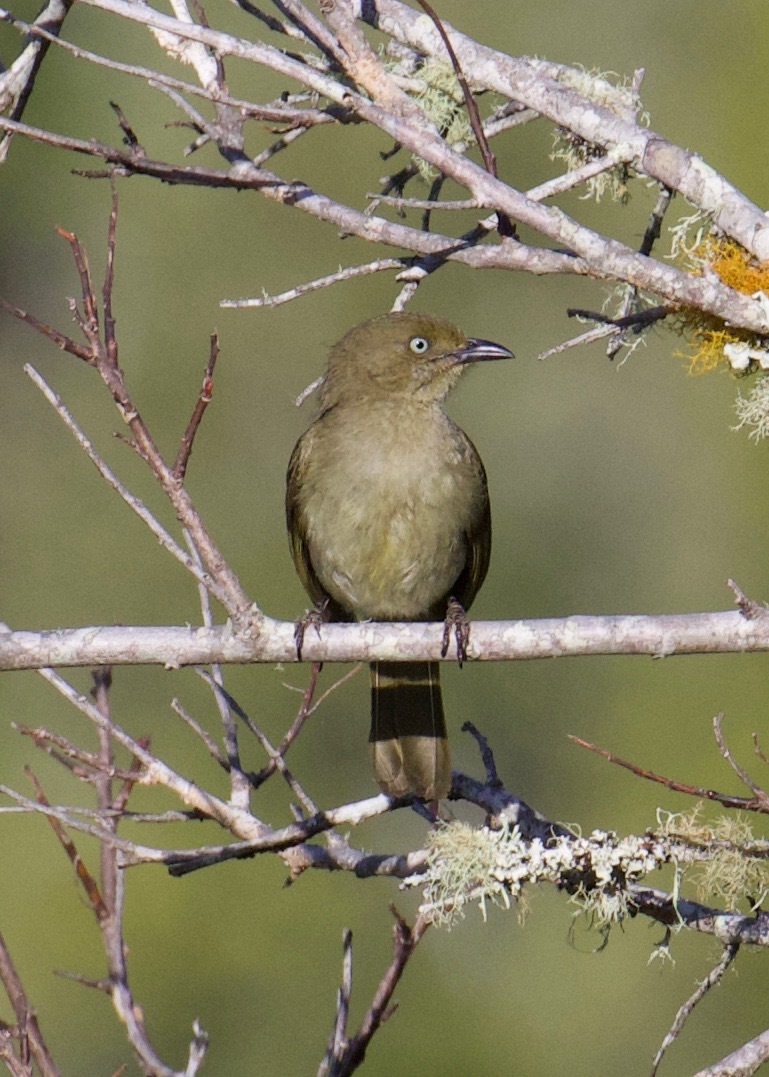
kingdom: Animalia
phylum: Chordata
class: Aves
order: Passeriformes
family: Pycnonotidae
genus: Andropadus
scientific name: Andropadus importunus
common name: Sombre greenbul
